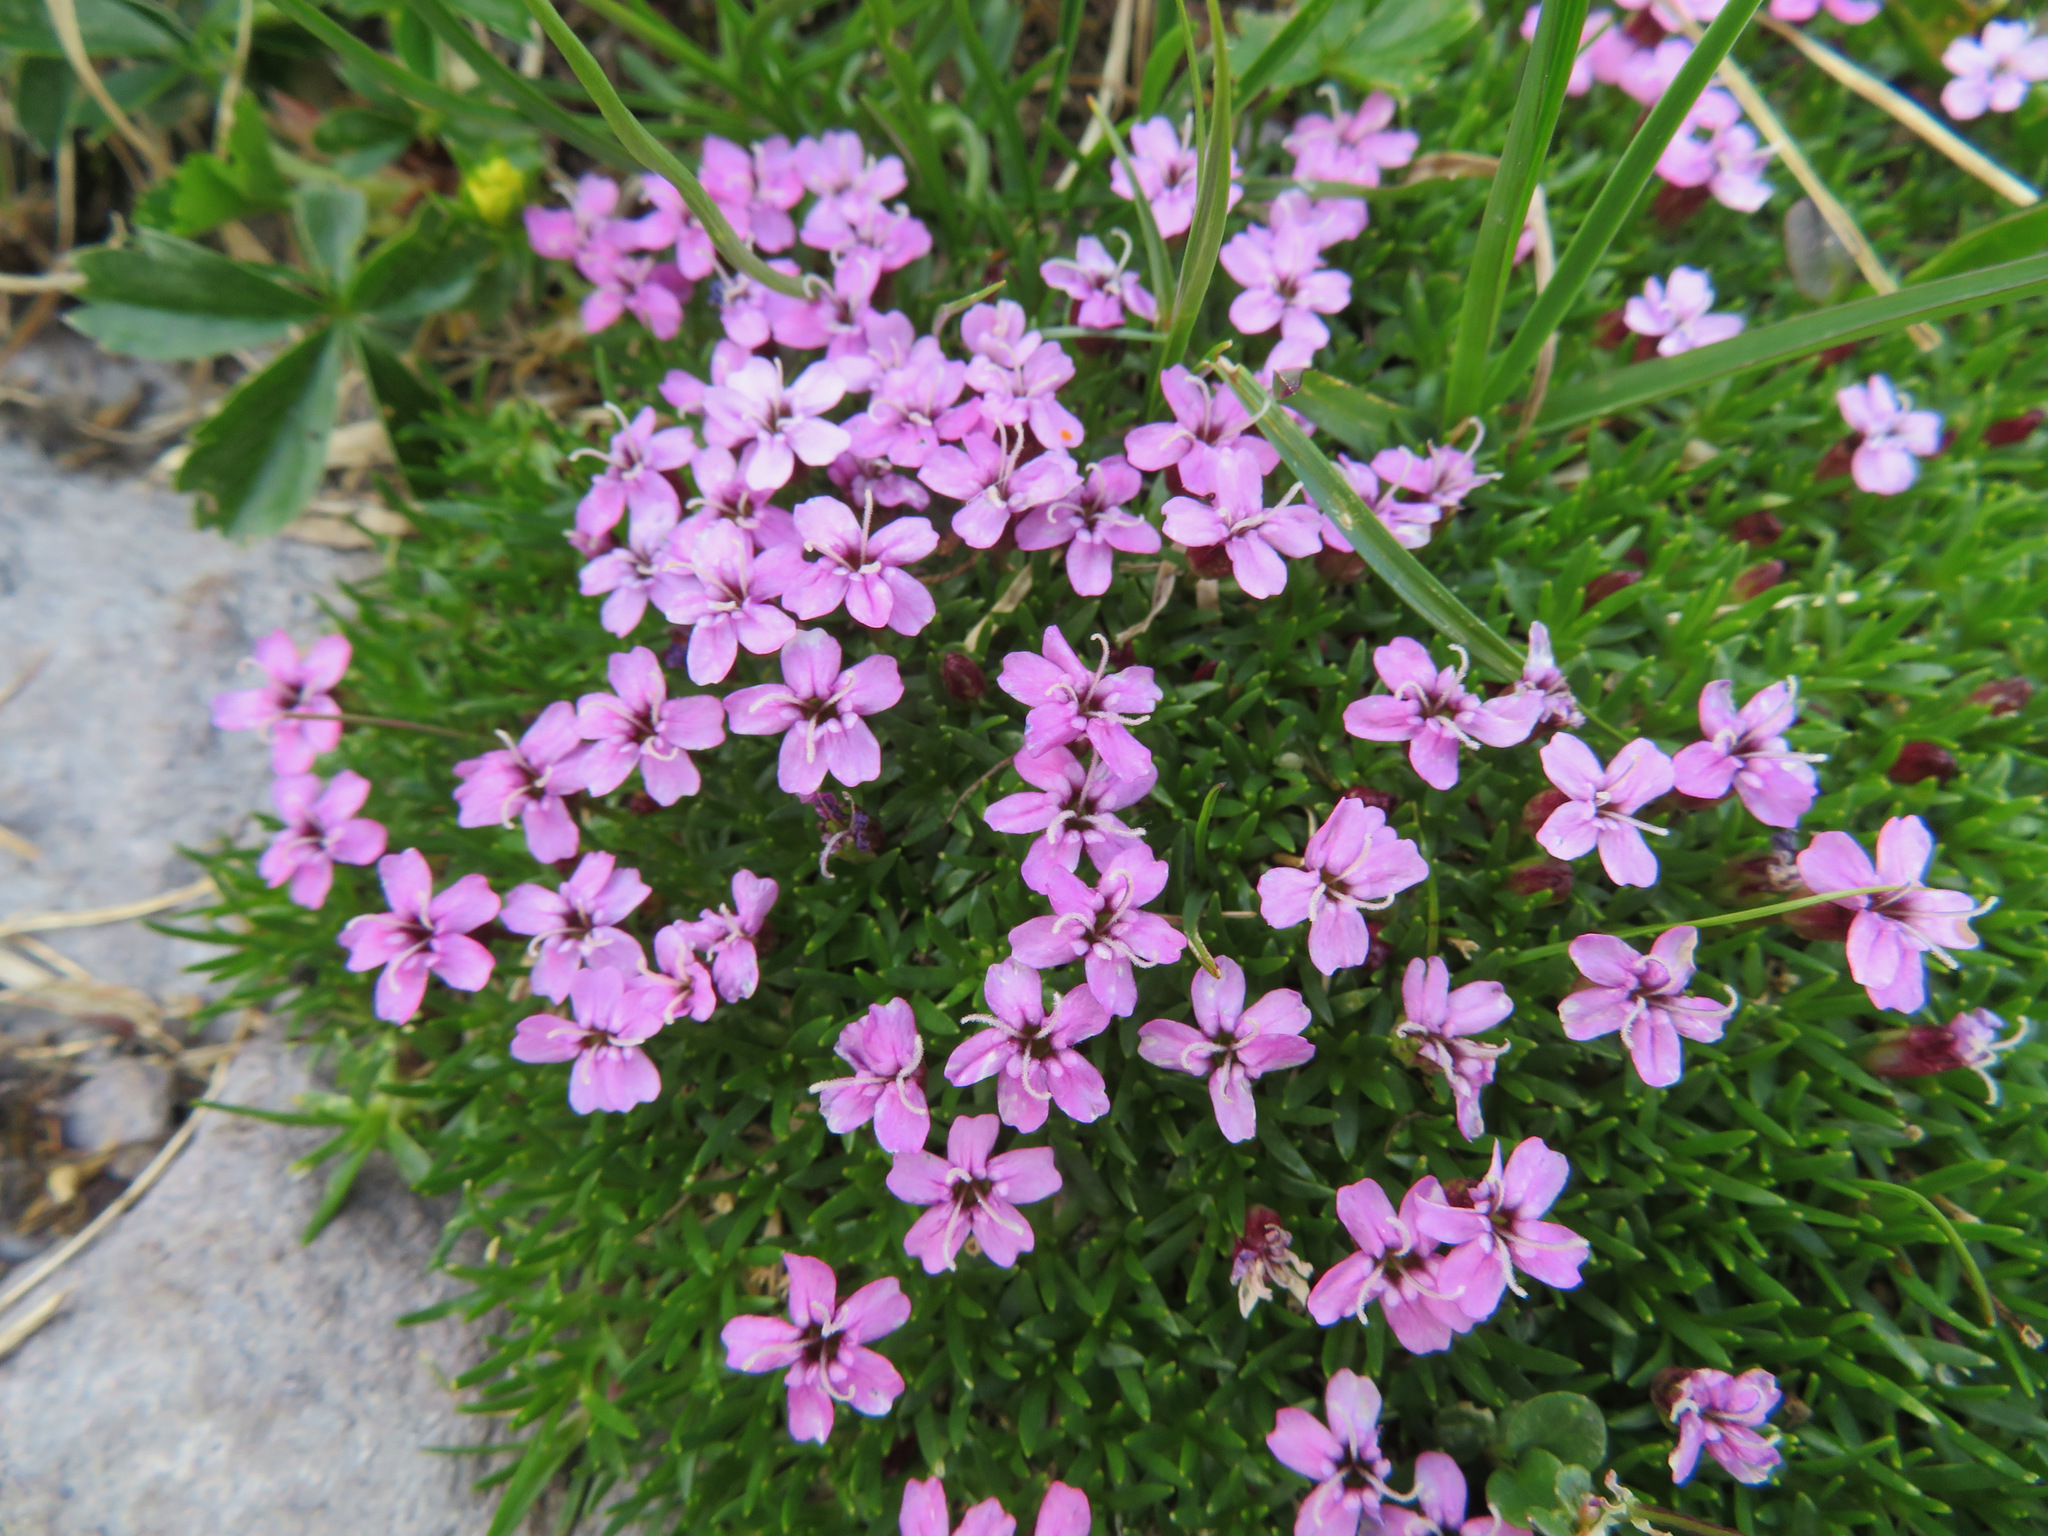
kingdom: Plantae
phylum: Tracheophyta
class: Magnoliopsida
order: Caryophyllales
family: Caryophyllaceae
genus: Silene
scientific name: Silene acaulis
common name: Moss campion
